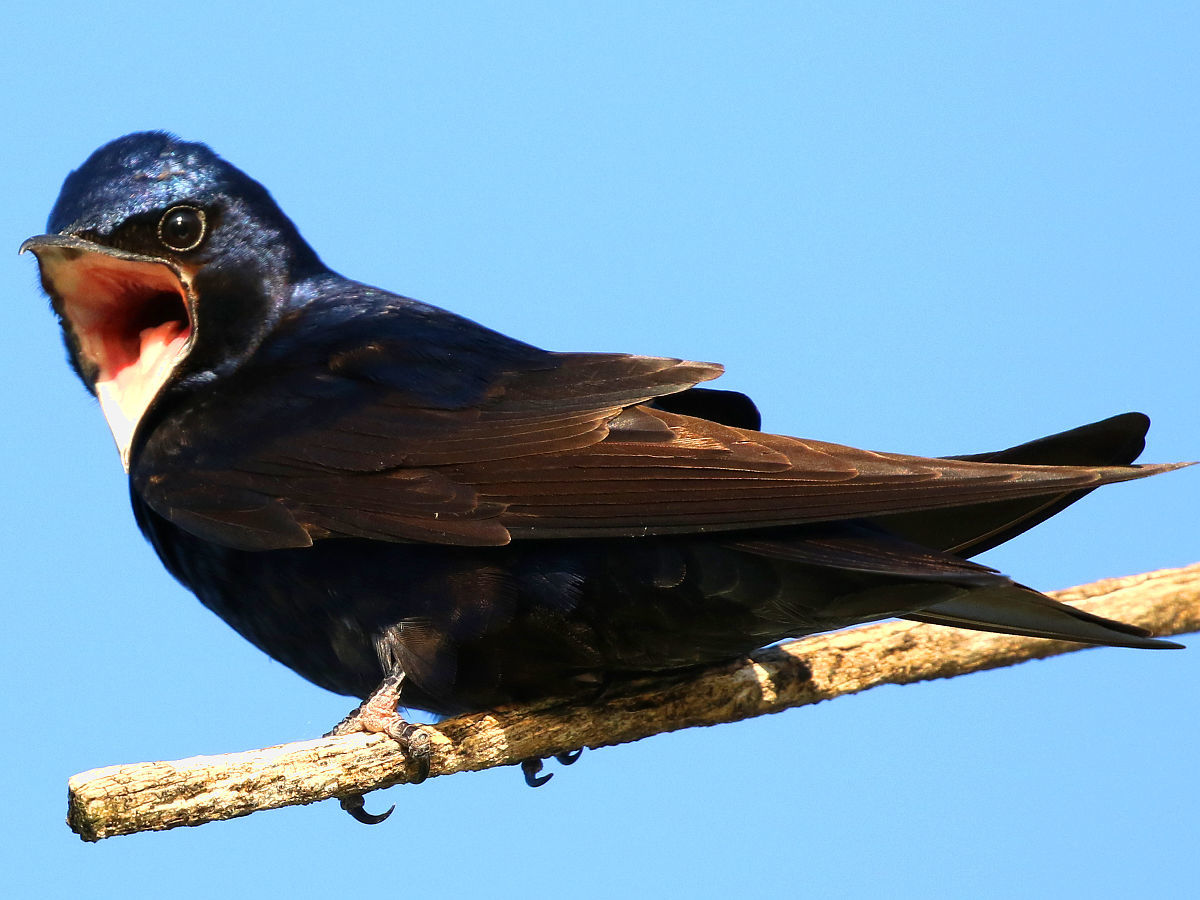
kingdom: Animalia
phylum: Chordata
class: Aves
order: Passeriformes
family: Hirundinidae
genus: Progne
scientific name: Progne subis
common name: Purple martin
